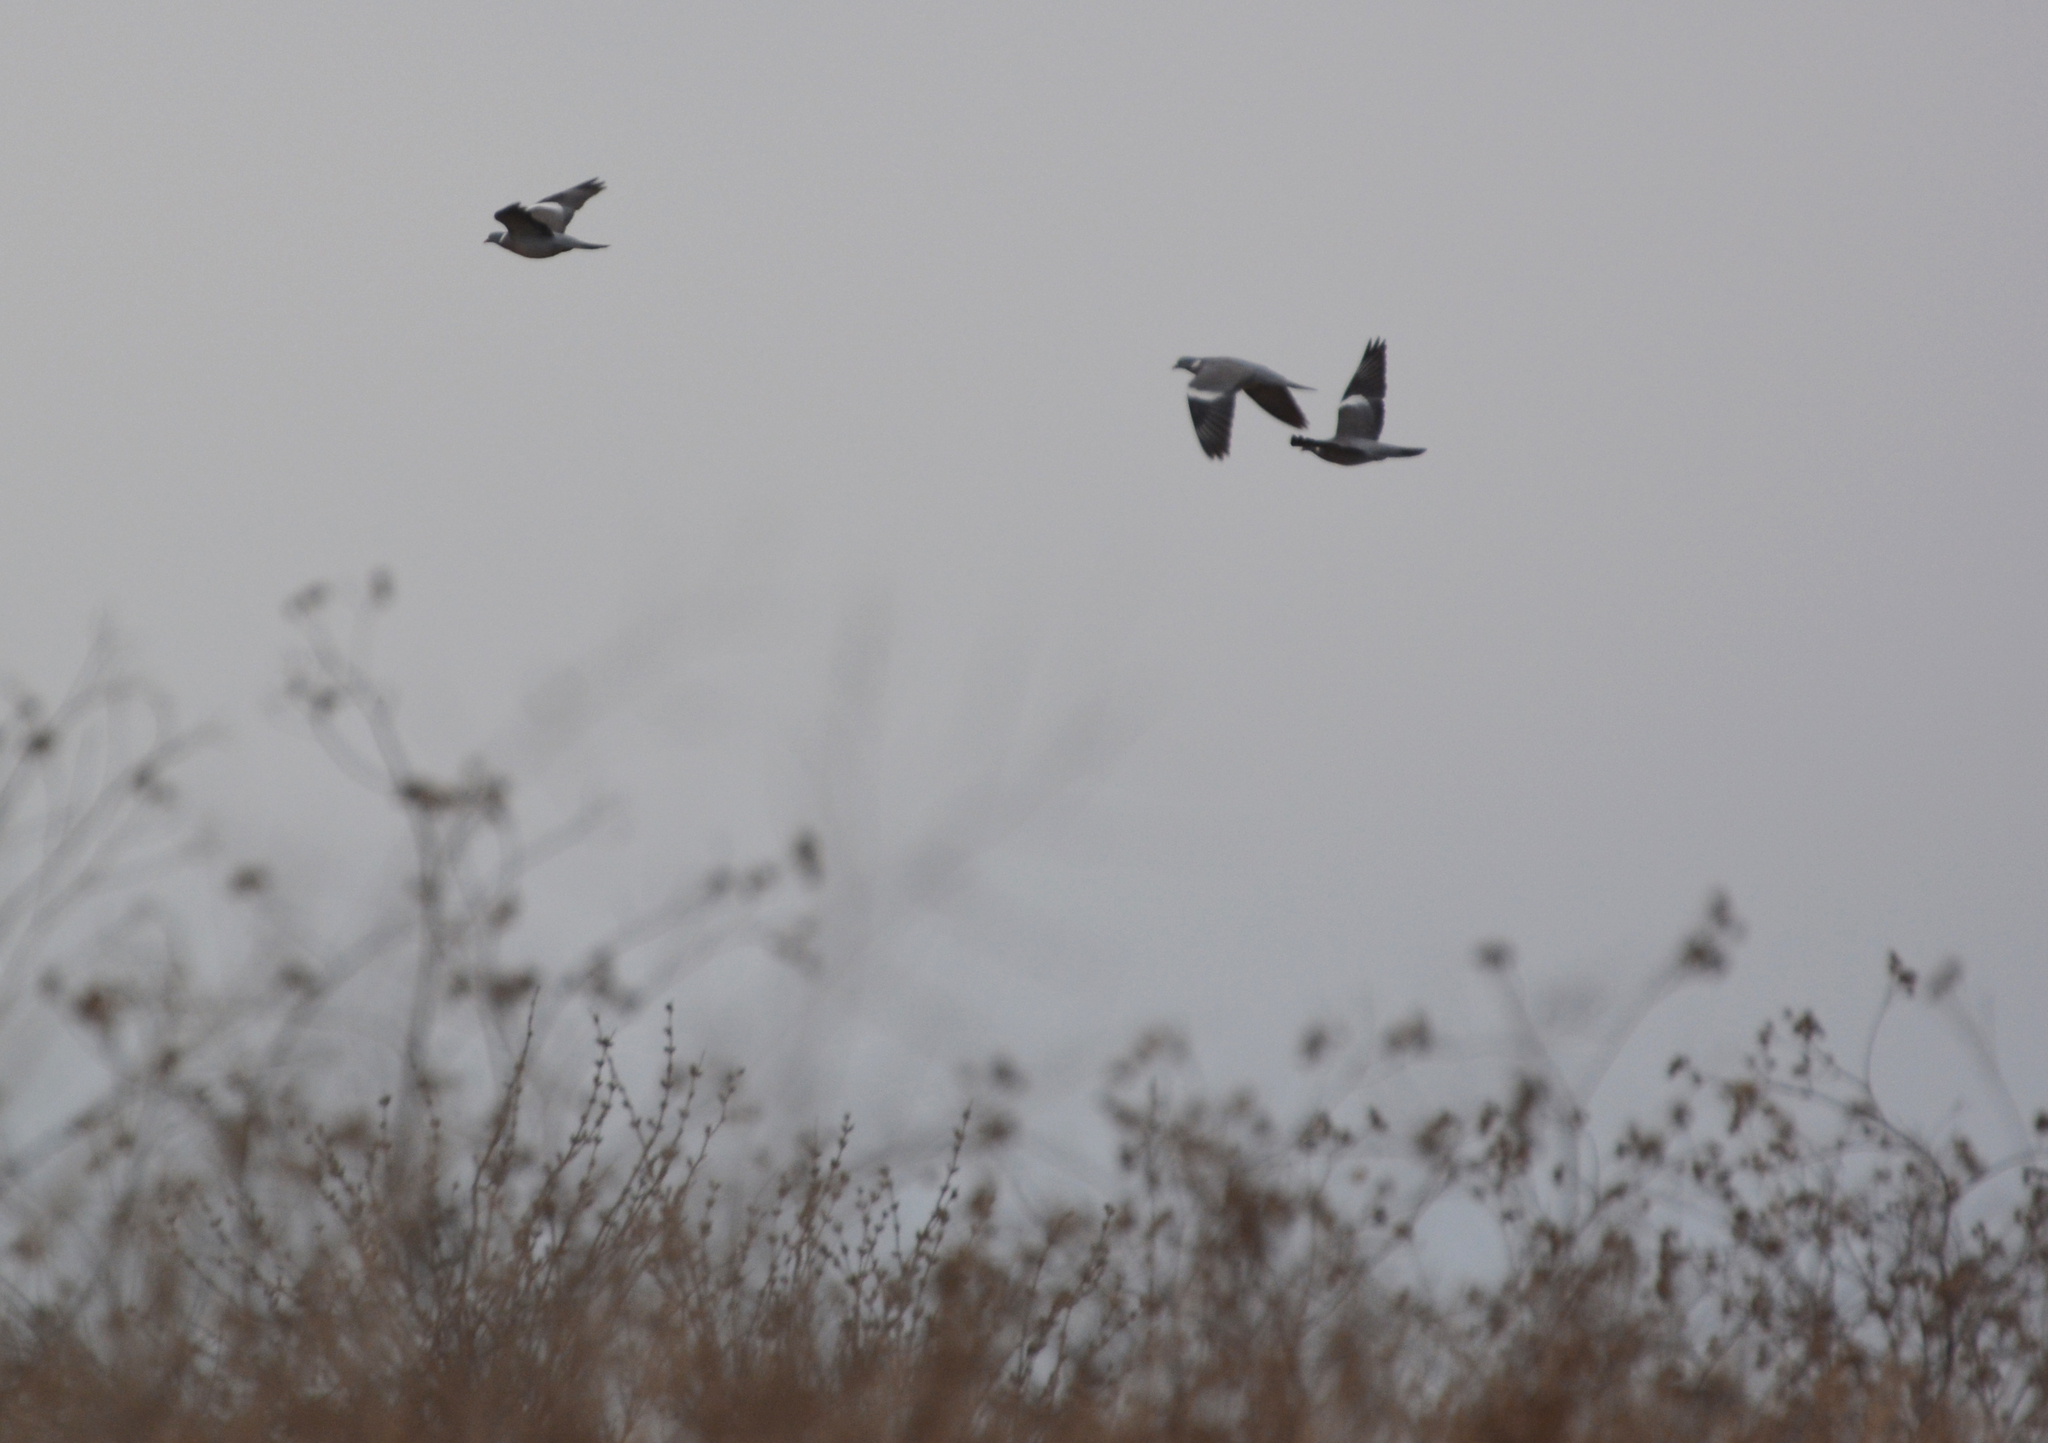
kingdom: Animalia
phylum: Chordata
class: Aves
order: Columbiformes
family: Columbidae
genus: Columba
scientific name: Columba palumbus
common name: Common wood pigeon
